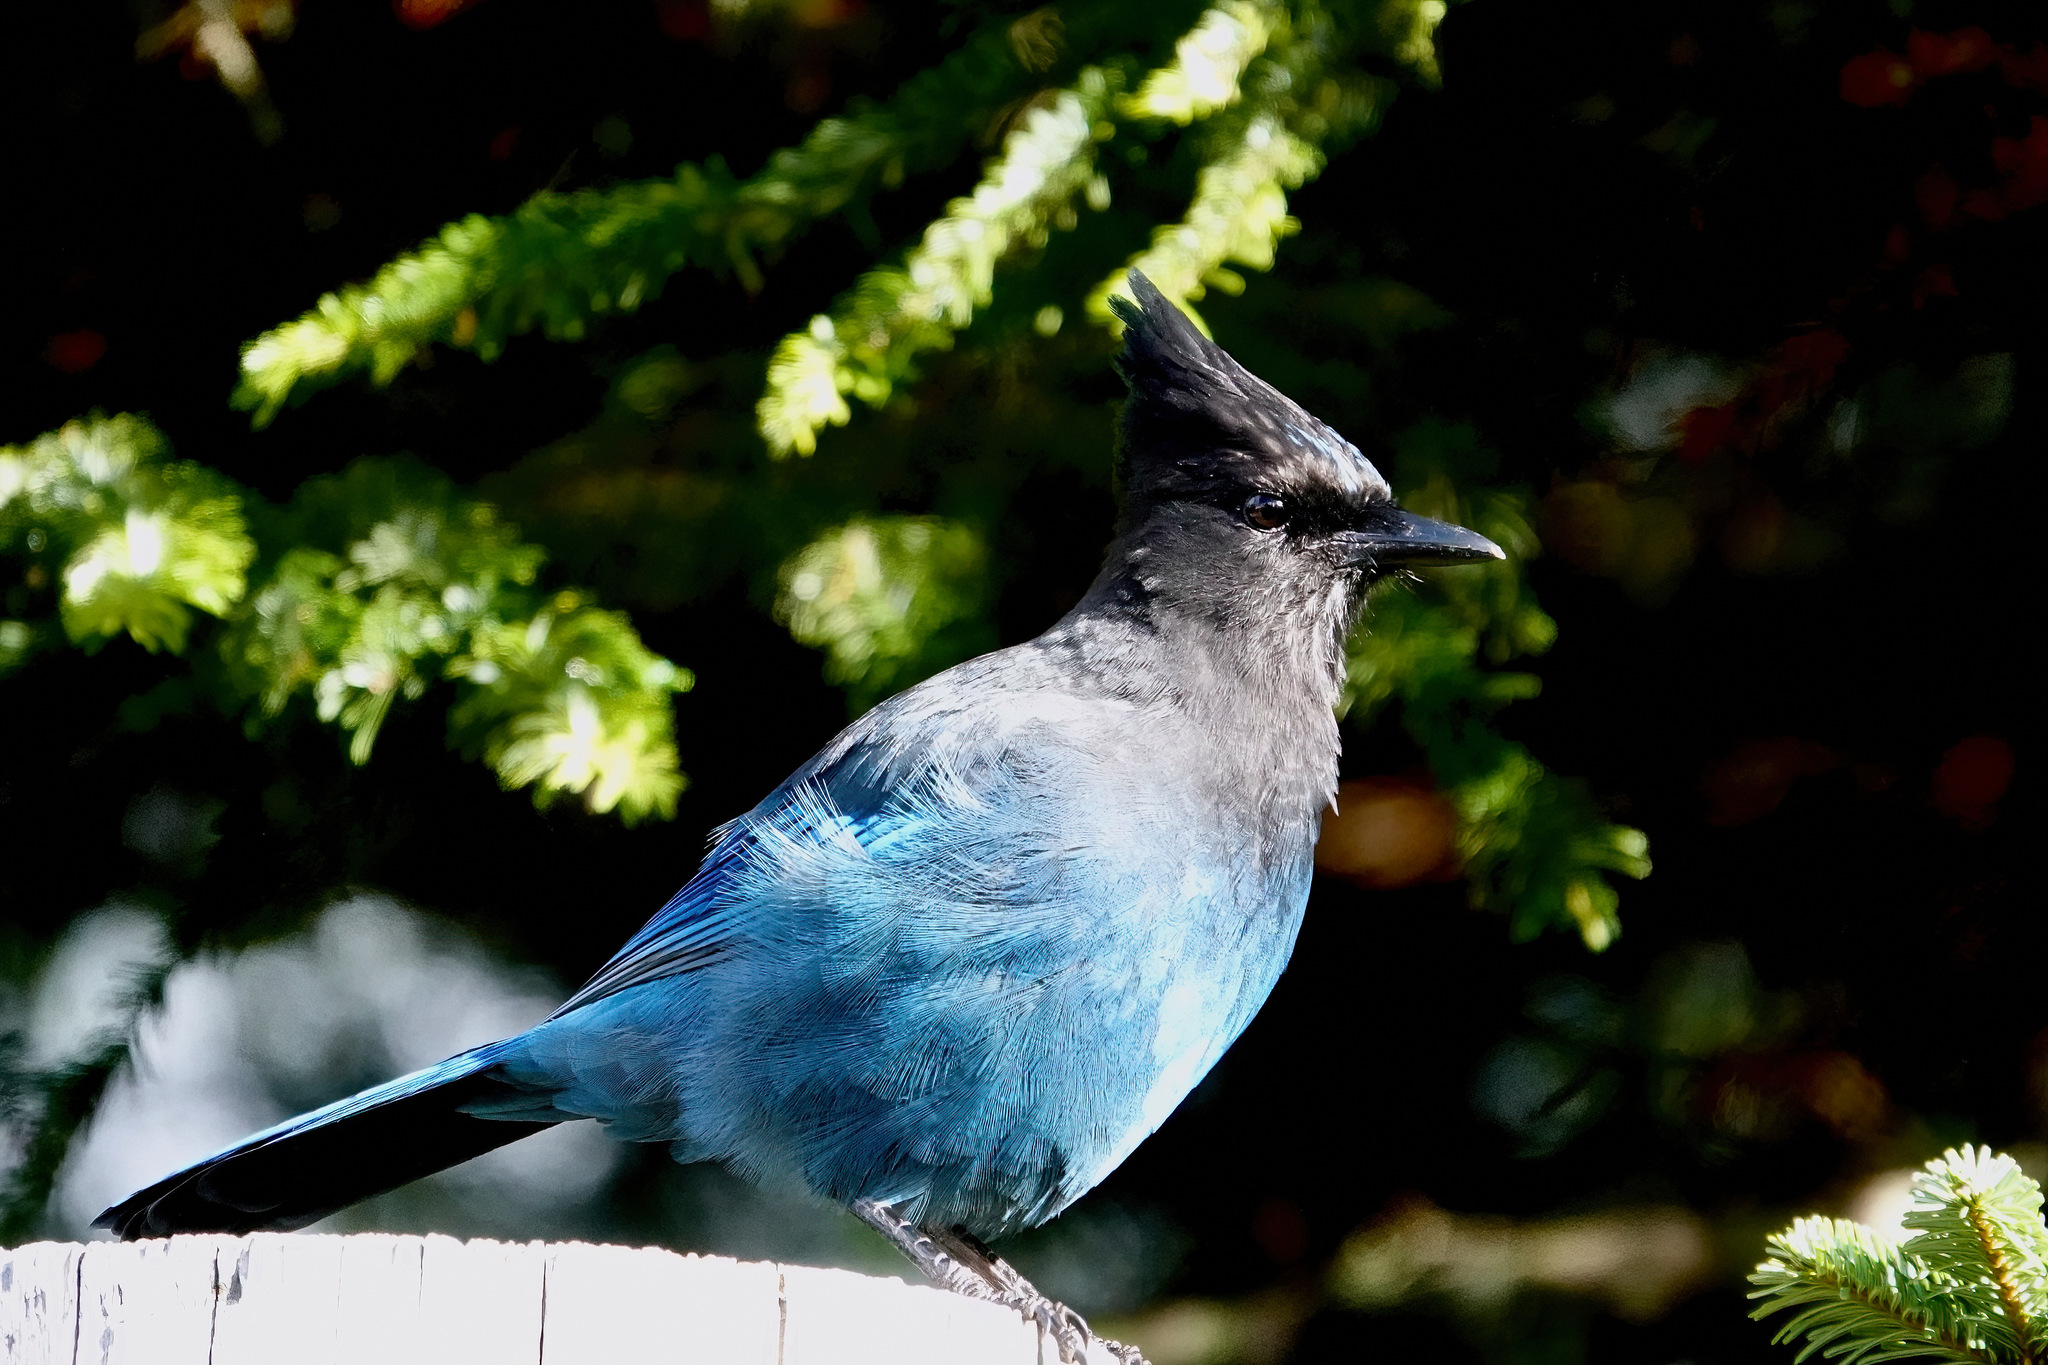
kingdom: Animalia
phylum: Chordata
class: Aves
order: Passeriformes
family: Corvidae
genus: Cyanocitta
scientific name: Cyanocitta stelleri
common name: Steller's jay
